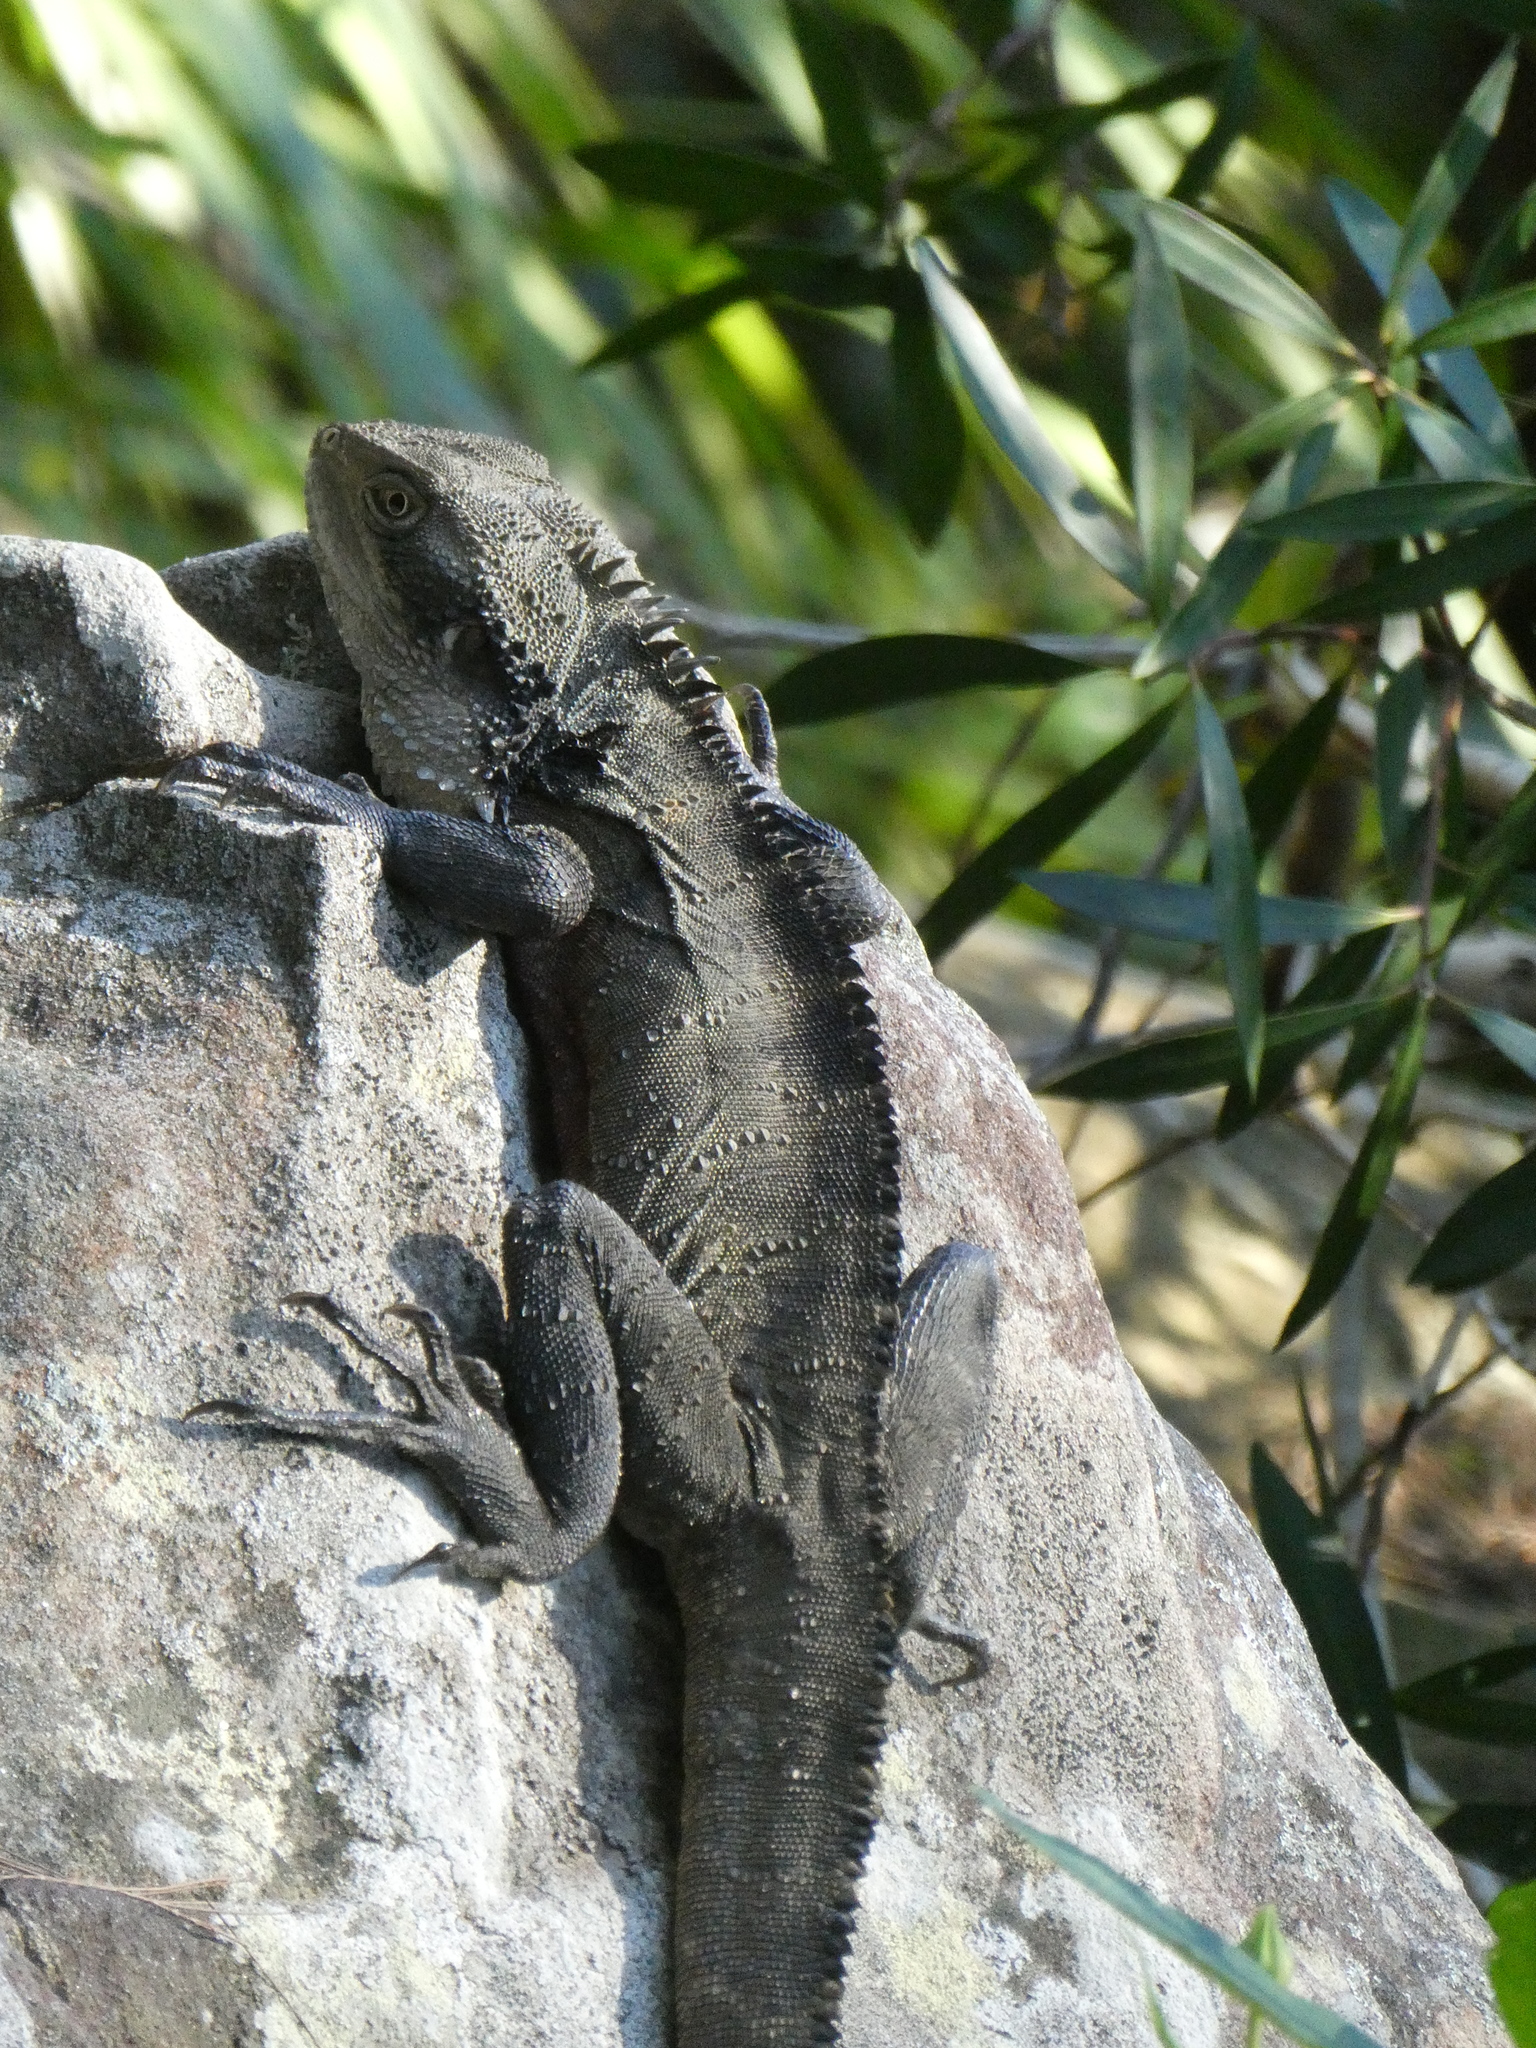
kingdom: Animalia
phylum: Chordata
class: Squamata
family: Agamidae
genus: Intellagama
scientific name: Intellagama lesueurii
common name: Eastern water dragon
